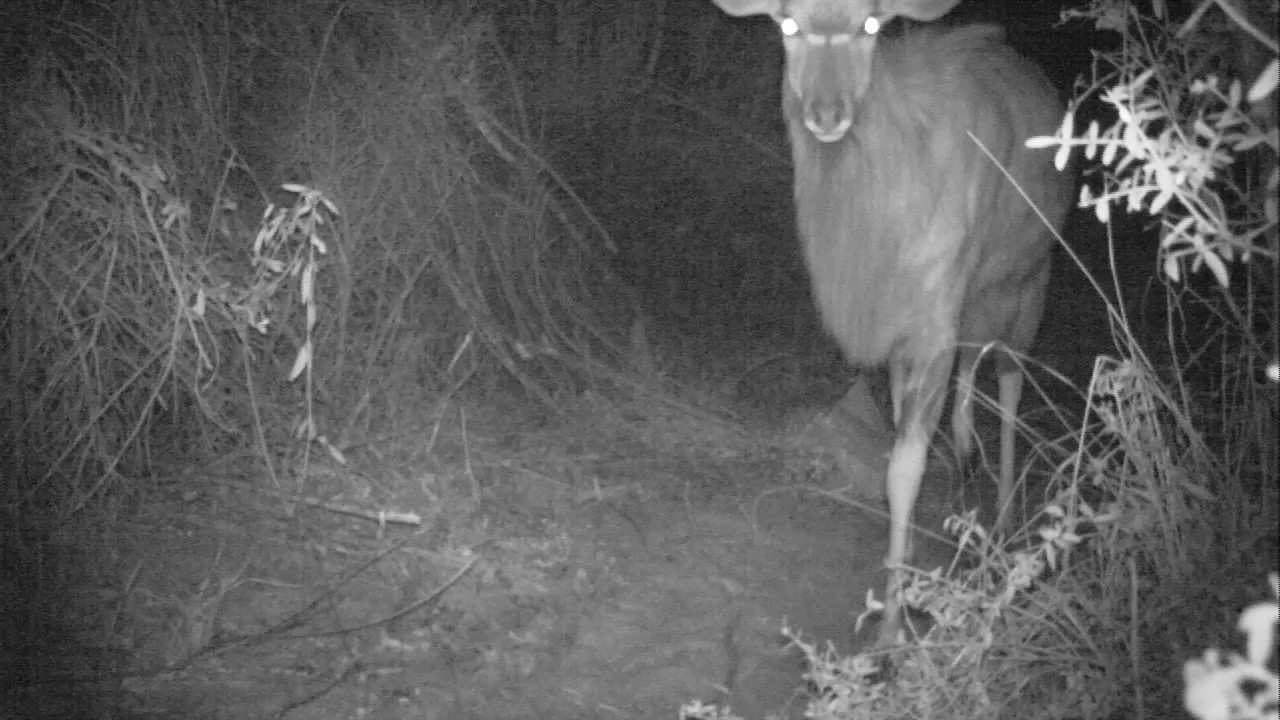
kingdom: Animalia
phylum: Chordata
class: Mammalia
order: Artiodactyla
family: Bovidae
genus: Tragelaphus
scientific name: Tragelaphus angasii
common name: Nyala
